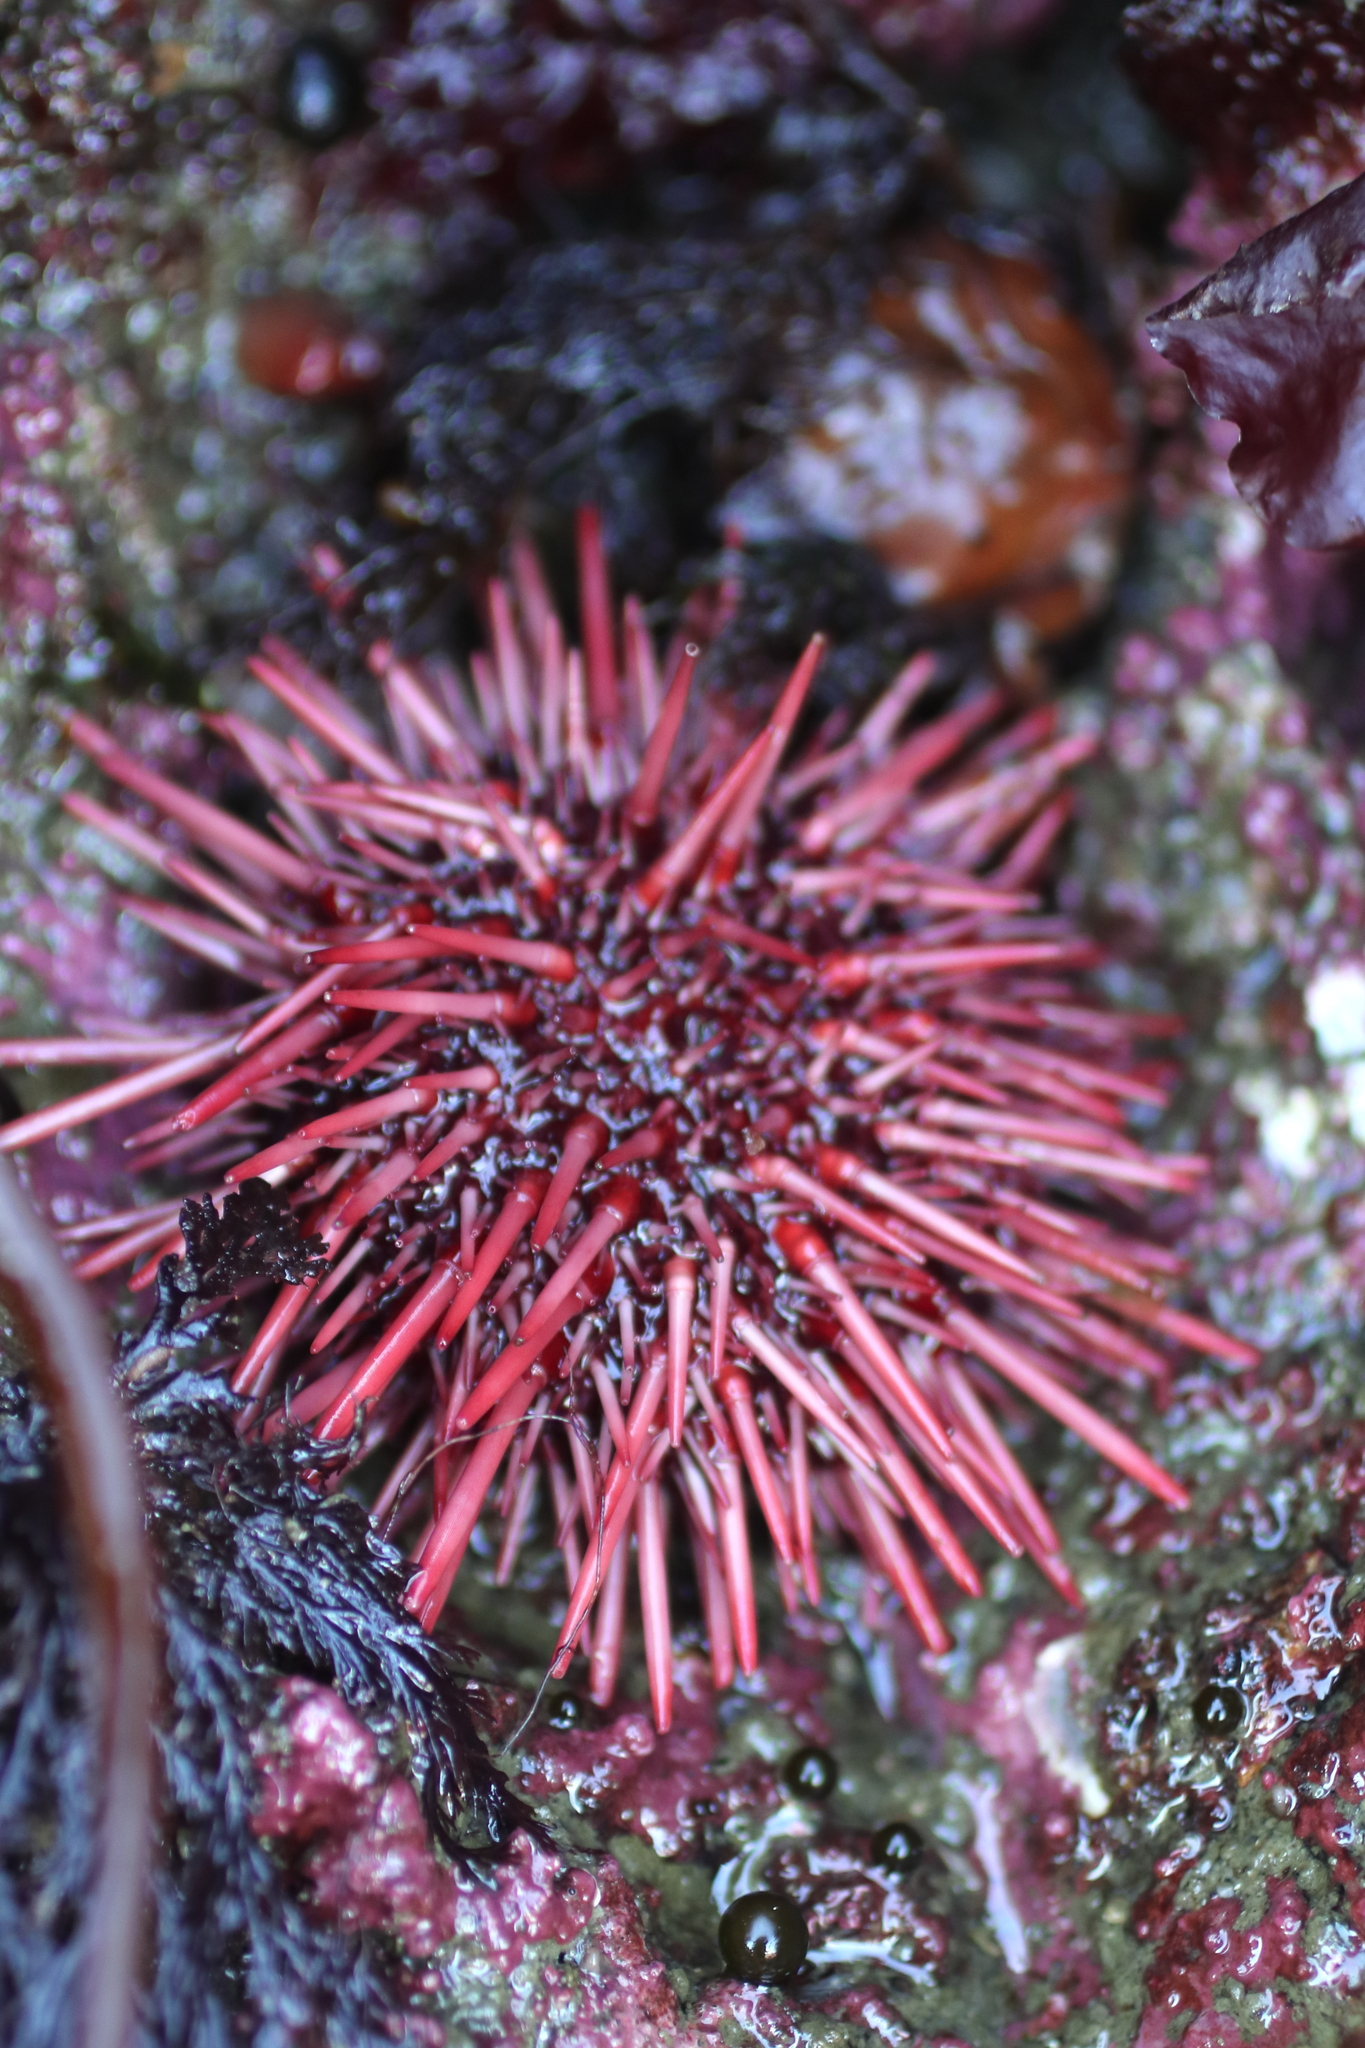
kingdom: Animalia
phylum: Echinodermata
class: Echinoidea
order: Camarodonta
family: Strongylocentrotidae
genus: Mesocentrotus
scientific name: Mesocentrotus franciscanus
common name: Red sea urchin
